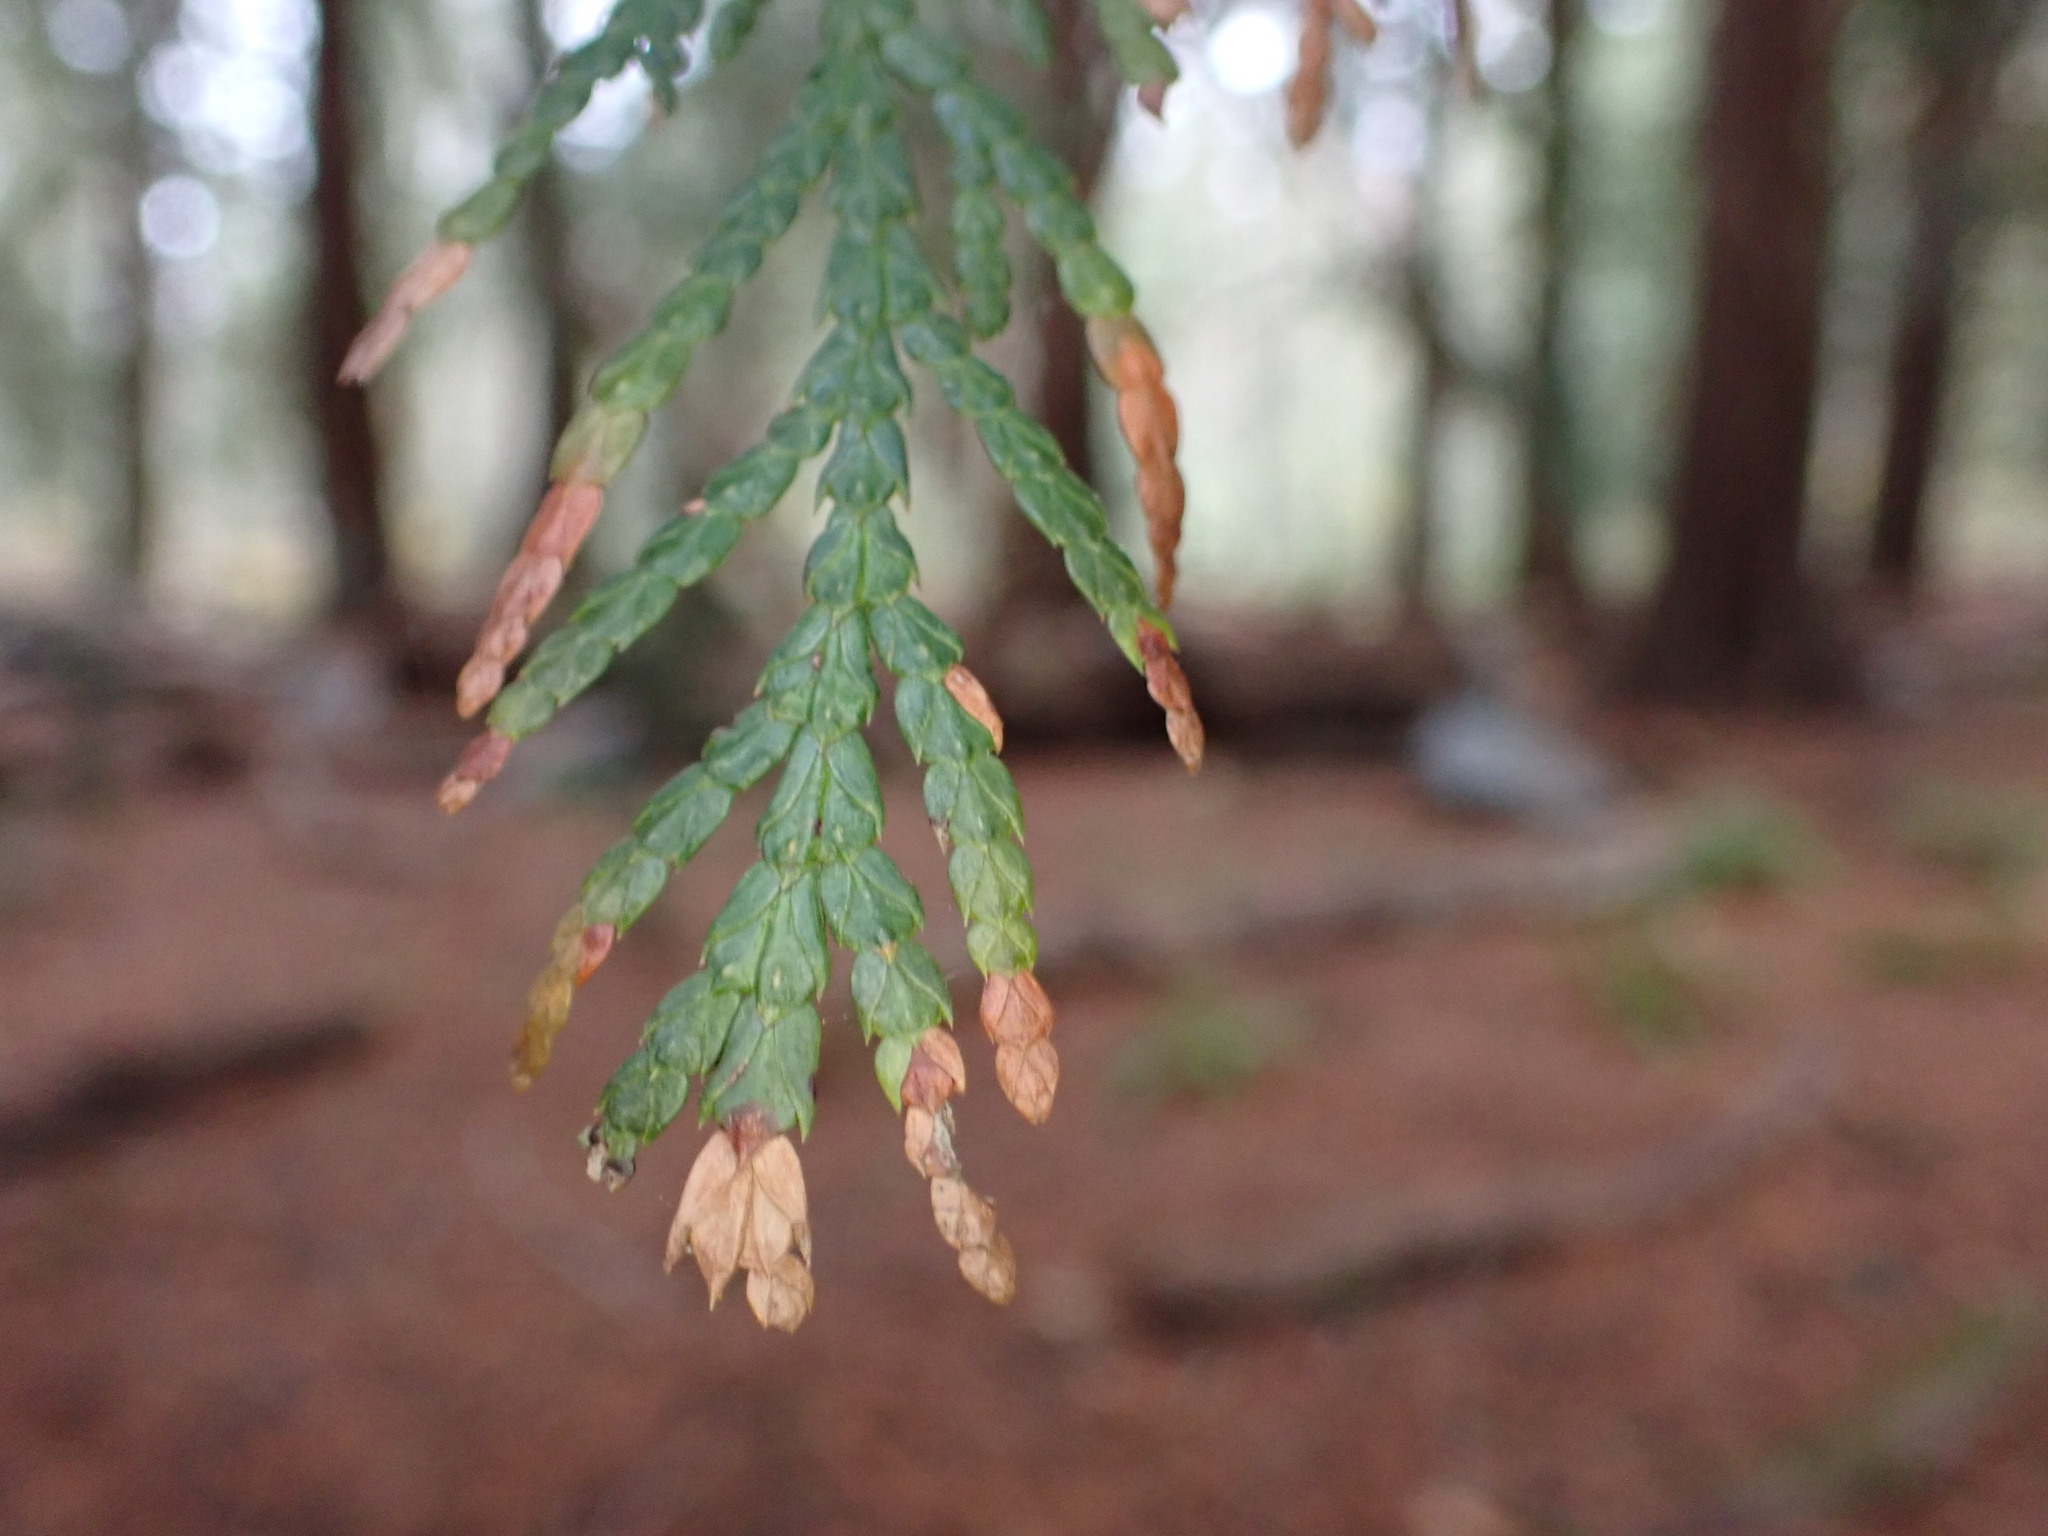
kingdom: Plantae
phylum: Tracheophyta
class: Pinopsida
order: Pinales
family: Cupressaceae
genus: Thuja
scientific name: Thuja plicata
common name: Western red-cedar
